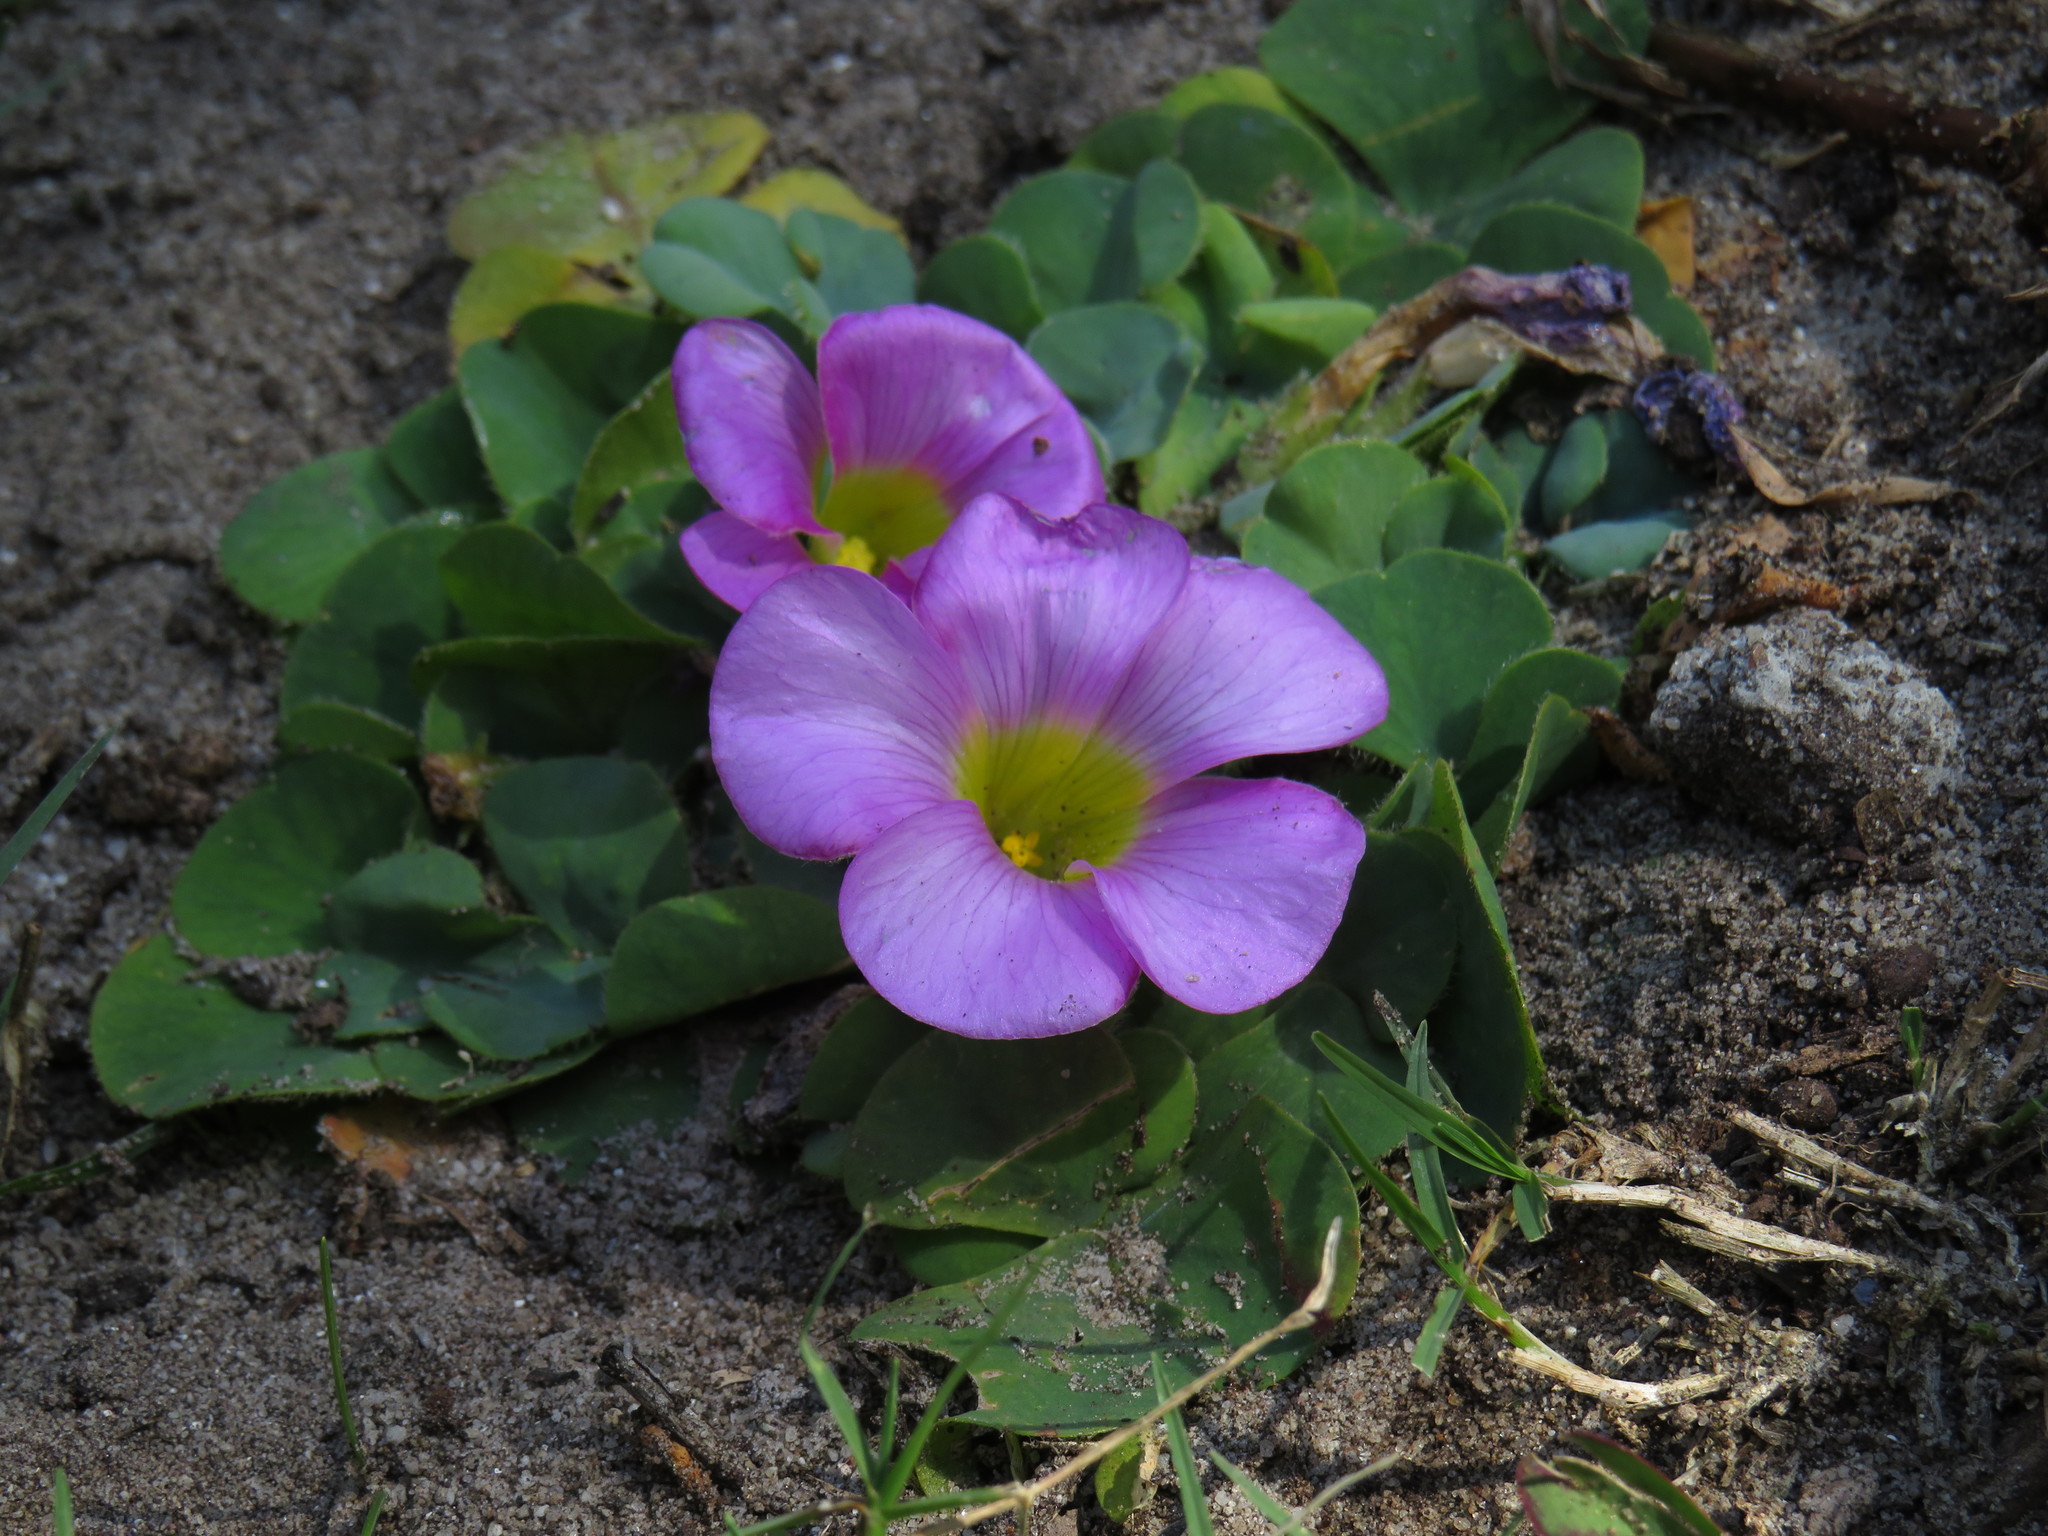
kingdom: Plantae
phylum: Tracheophyta
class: Magnoliopsida
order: Oxalidales
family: Oxalidaceae
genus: Oxalis
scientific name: Oxalis purpurea
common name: Purple woodsorrel
